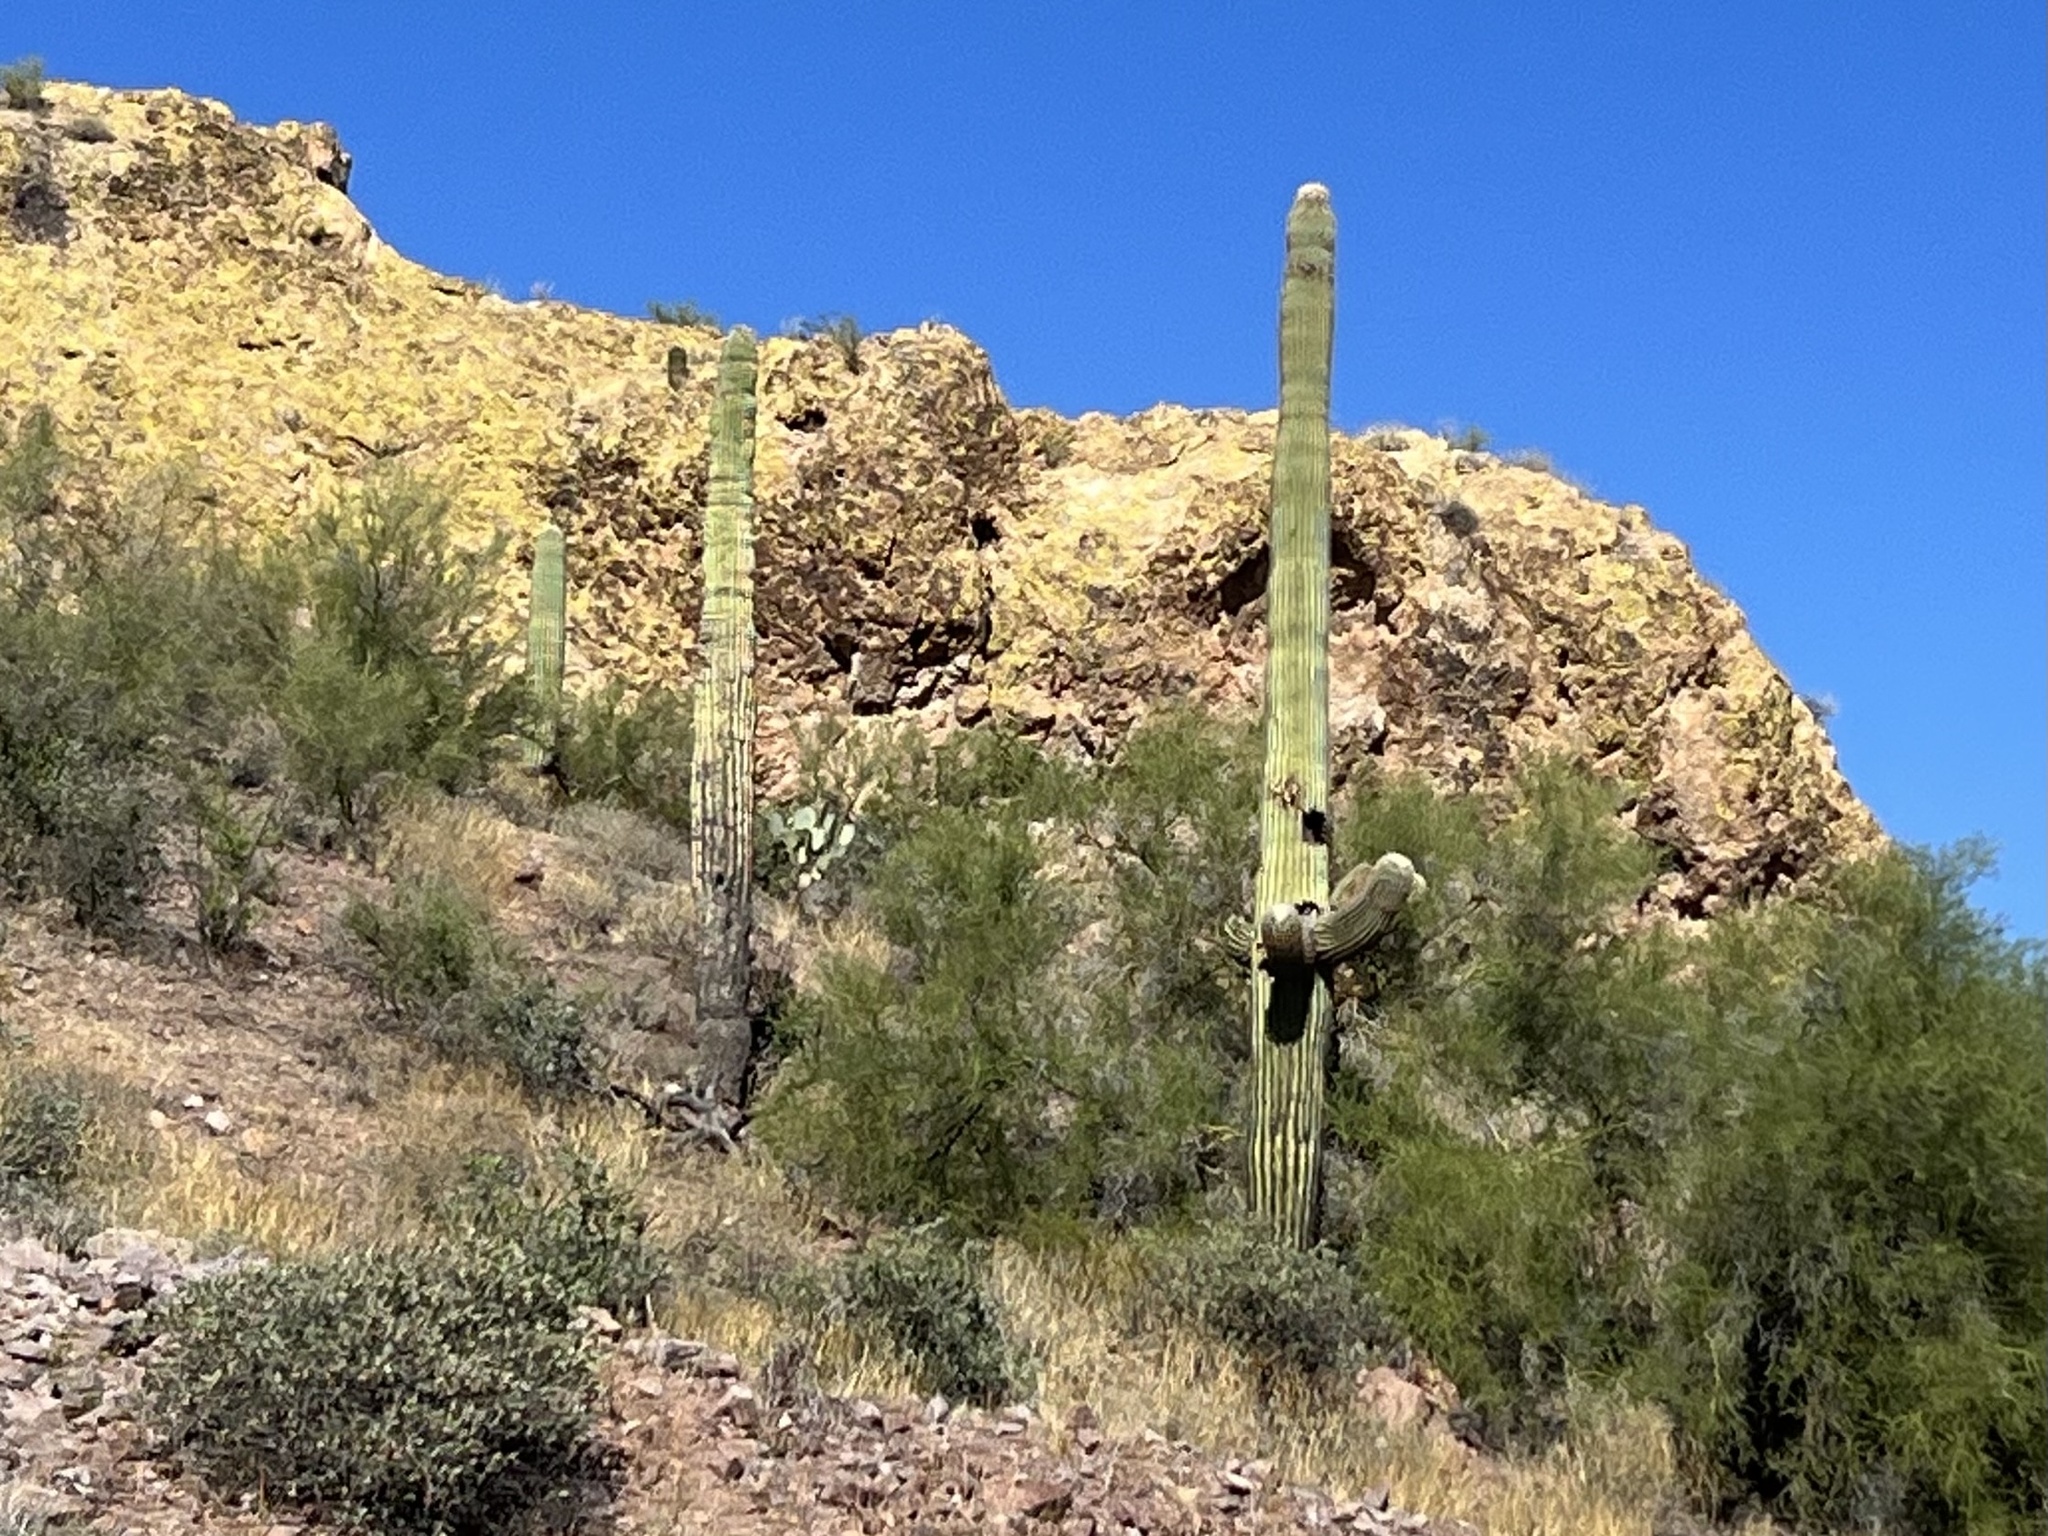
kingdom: Plantae
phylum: Tracheophyta
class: Magnoliopsida
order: Caryophyllales
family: Cactaceae
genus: Carnegiea
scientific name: Carnegiea gigantea
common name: Saguaro
